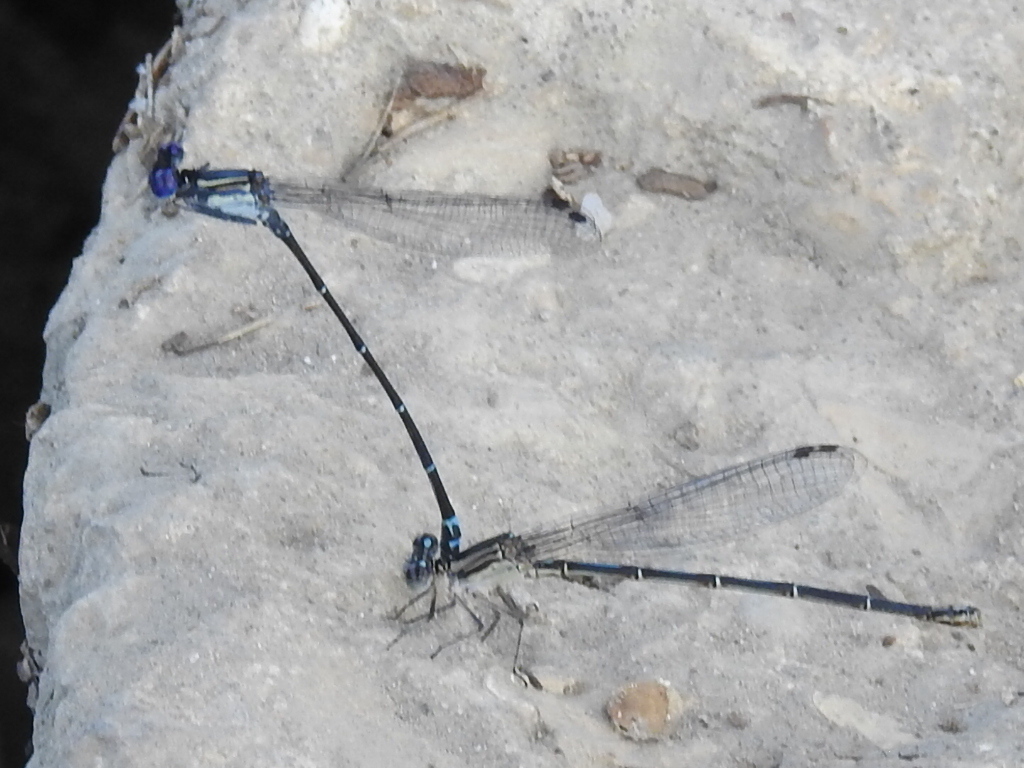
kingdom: Animalia
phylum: Arthropoda
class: Insecta
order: Odonata
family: Coenagrionidae
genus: Argia
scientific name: Argia translata
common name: Dusky dancer
